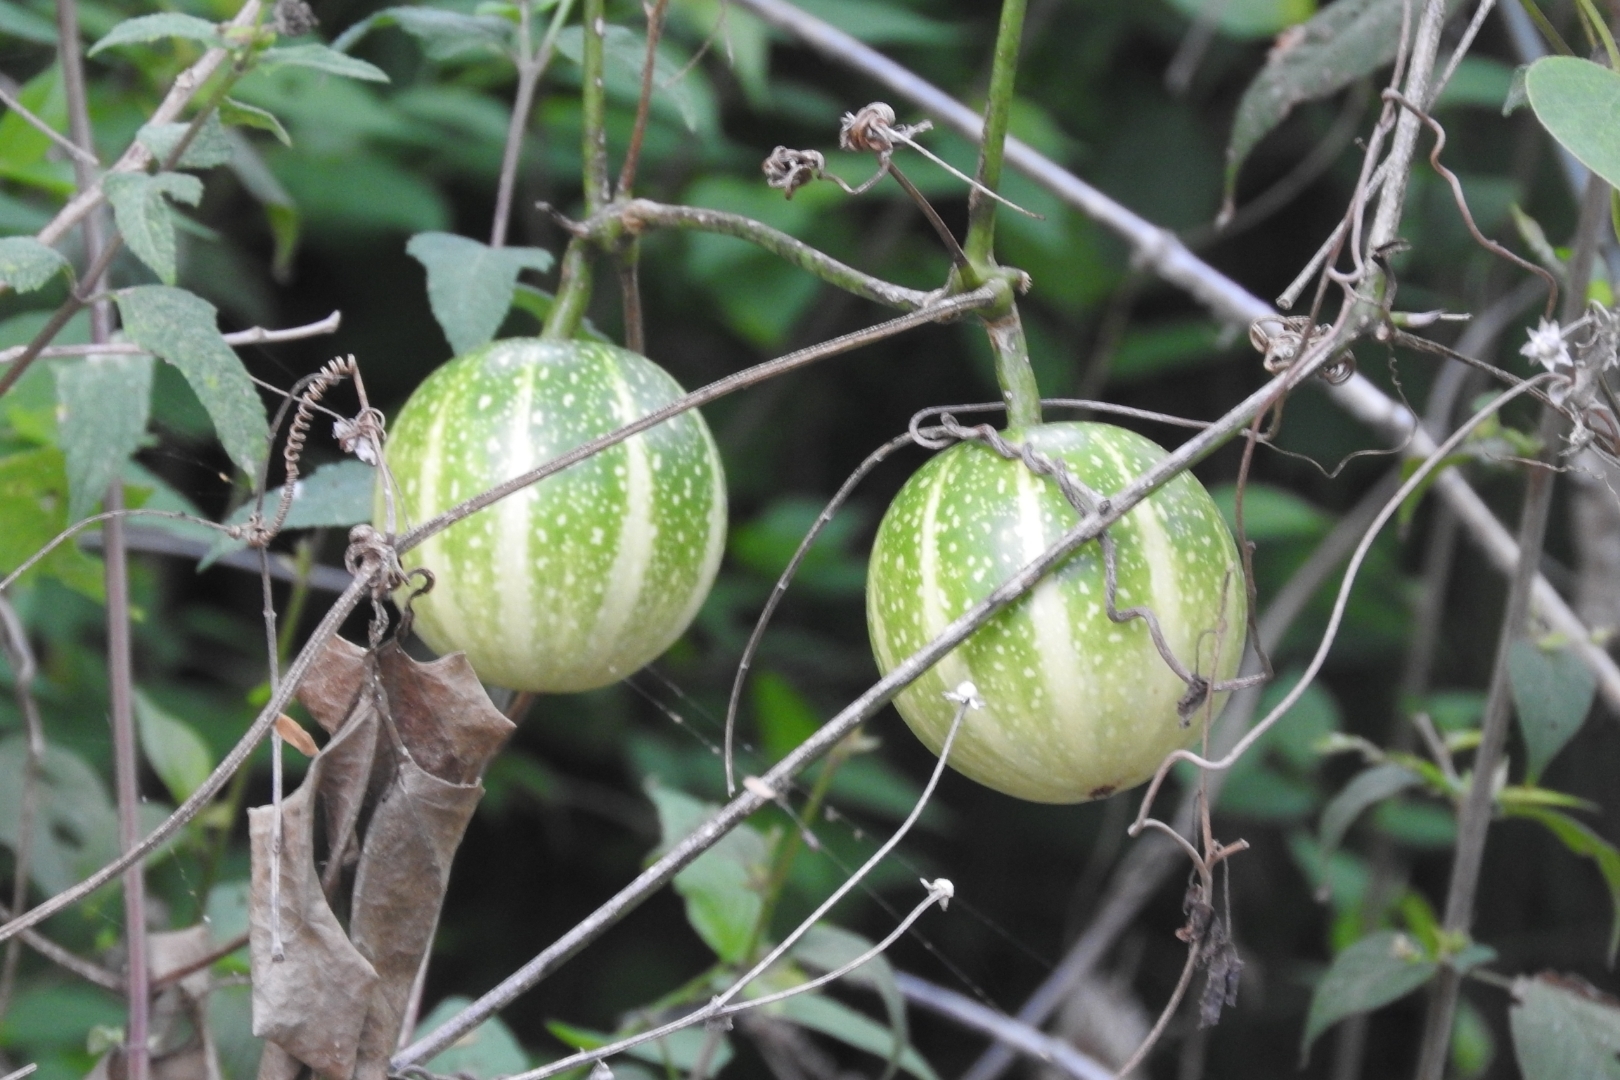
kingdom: Plantae
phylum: Tracheophyta
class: Magnoliopsida
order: Cucurbitales
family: Cucurbitaceae
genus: Cionosicys
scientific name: Cionosicys excisus
